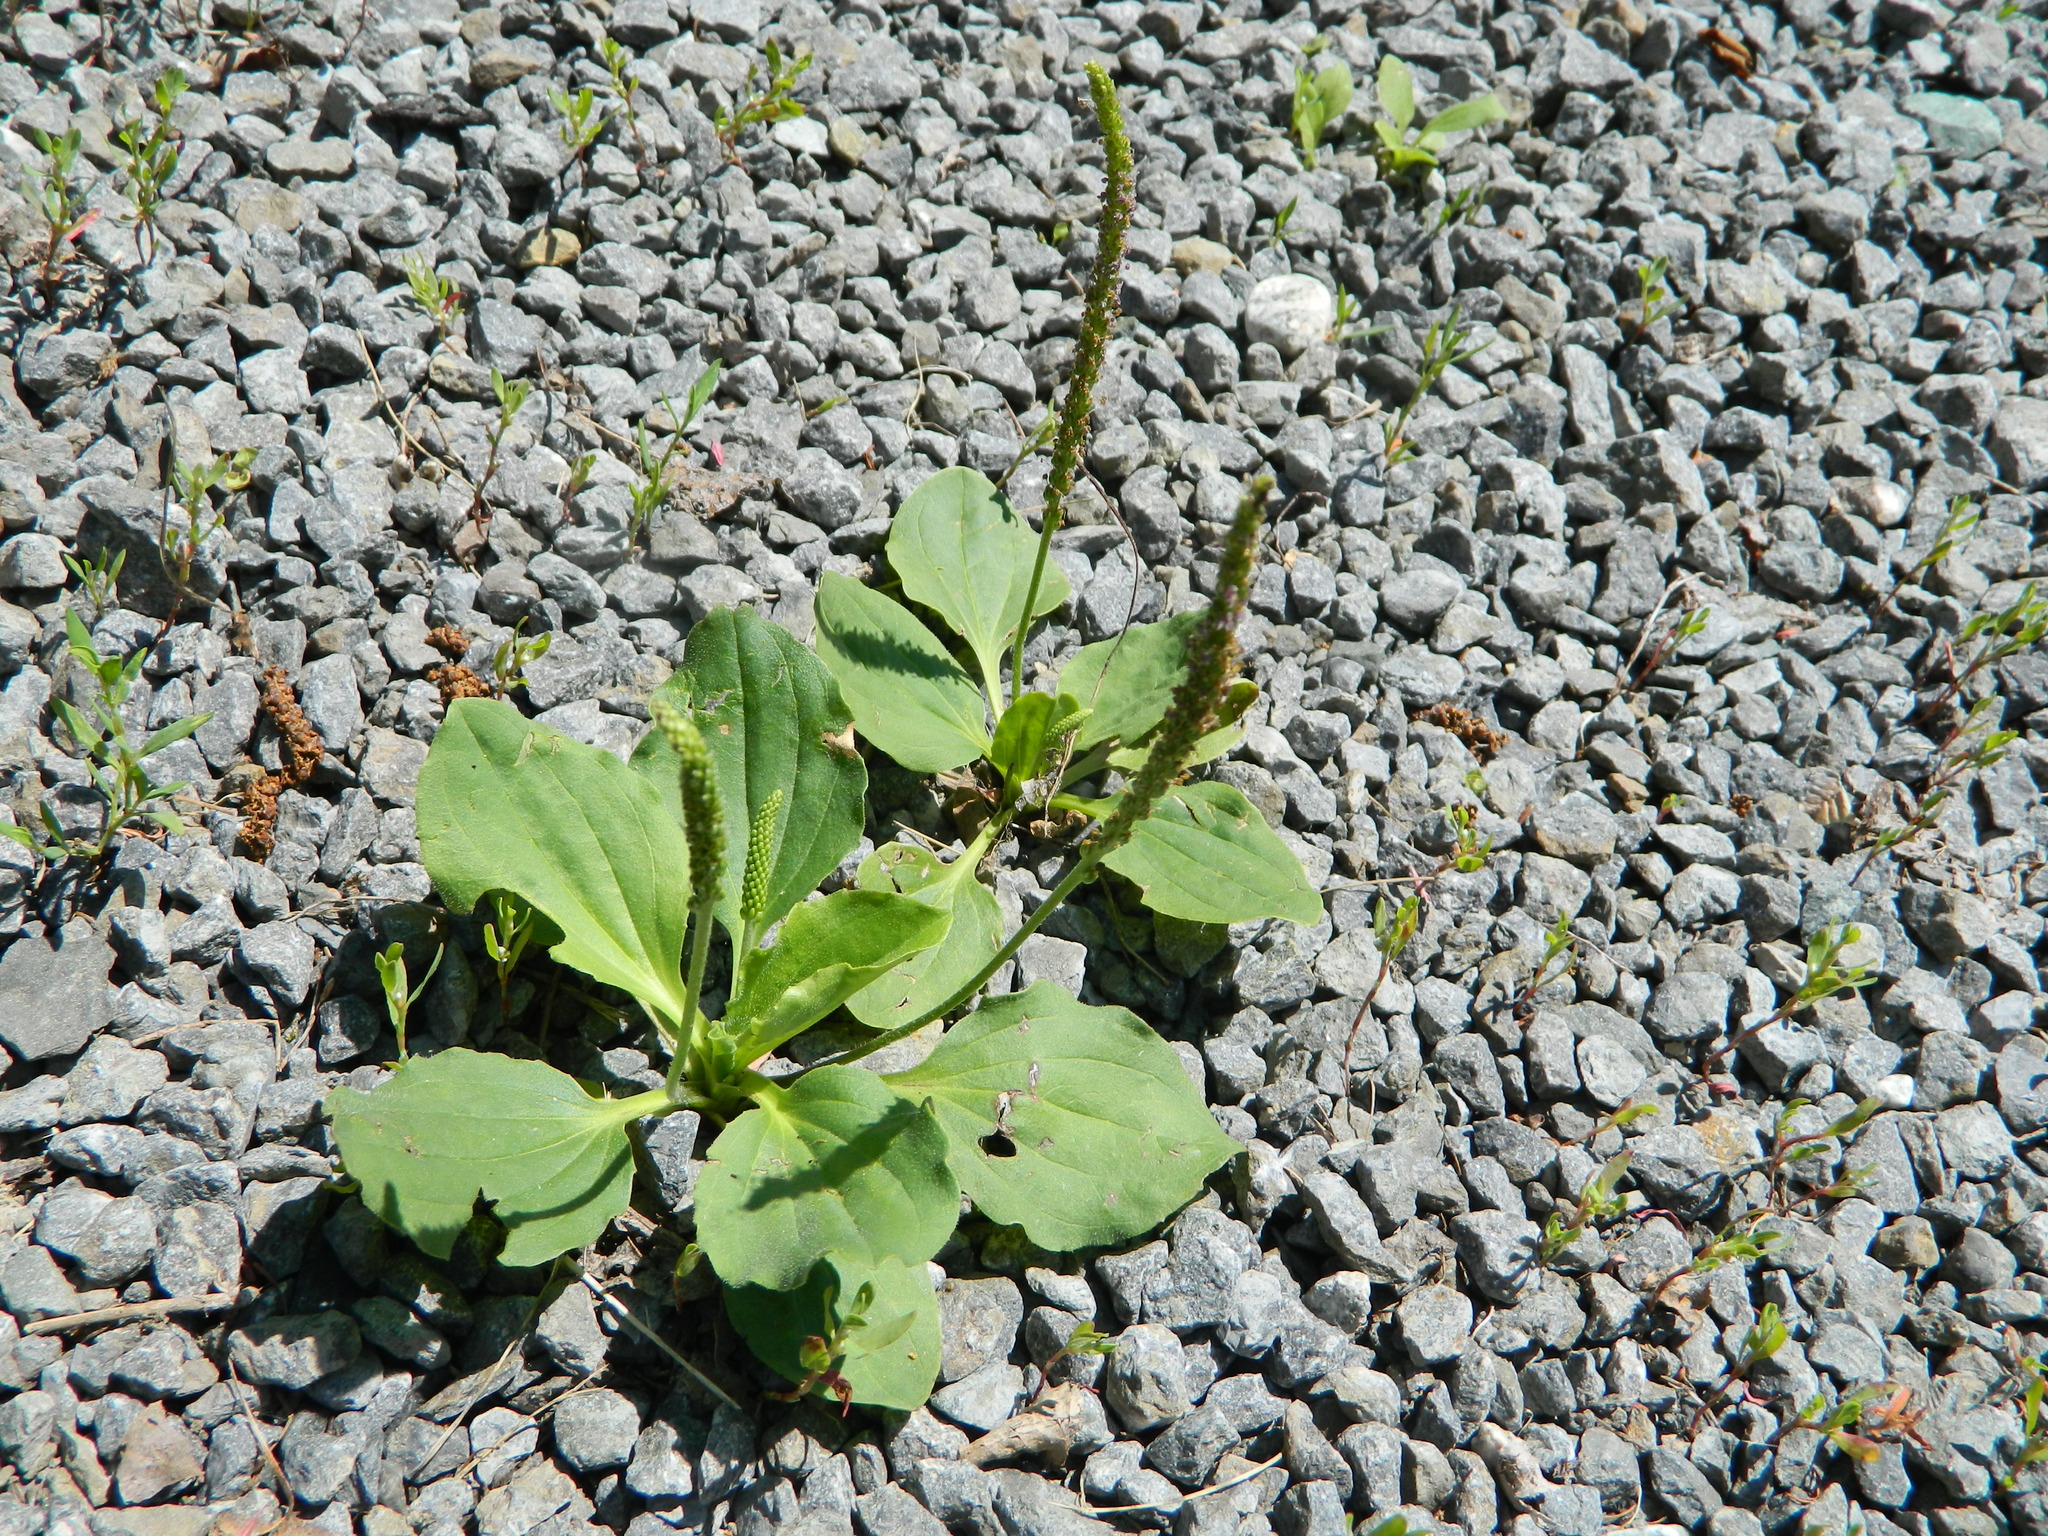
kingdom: Plantae
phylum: Tracheophyta
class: Magnoliopsida
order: Lamiales
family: Plantaginaceae
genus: Plantago
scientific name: Plantago major
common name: Common plantain
